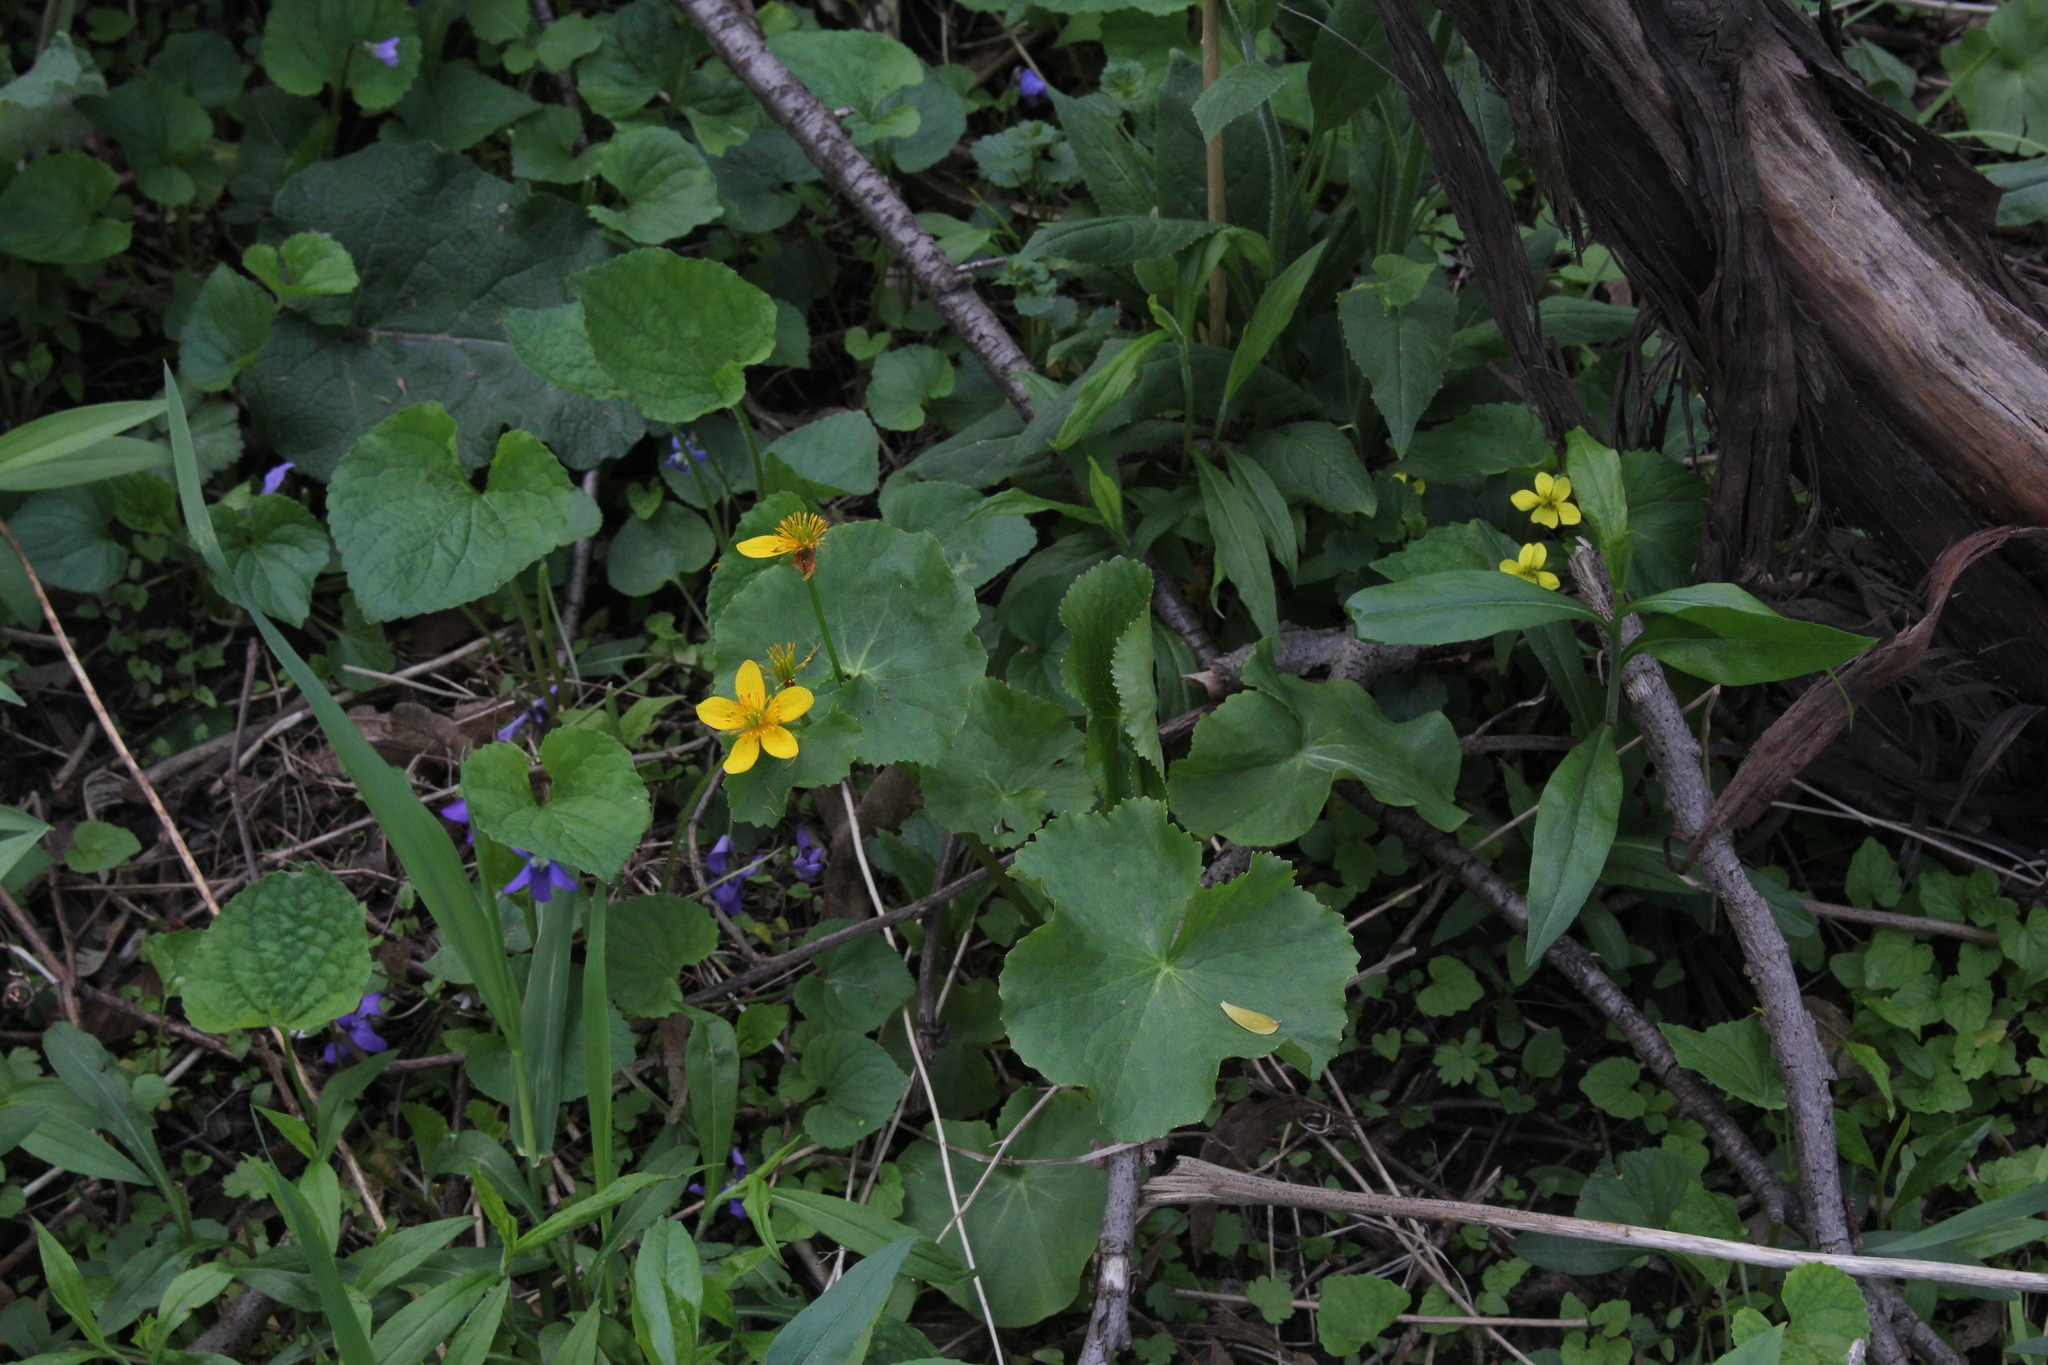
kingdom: Plantae
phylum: Tracheophyta
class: Magnoliopsida
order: Ranunculales
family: Ranunculaceae
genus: Caltha
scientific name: Caltha palustris
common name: Marsh marigold
